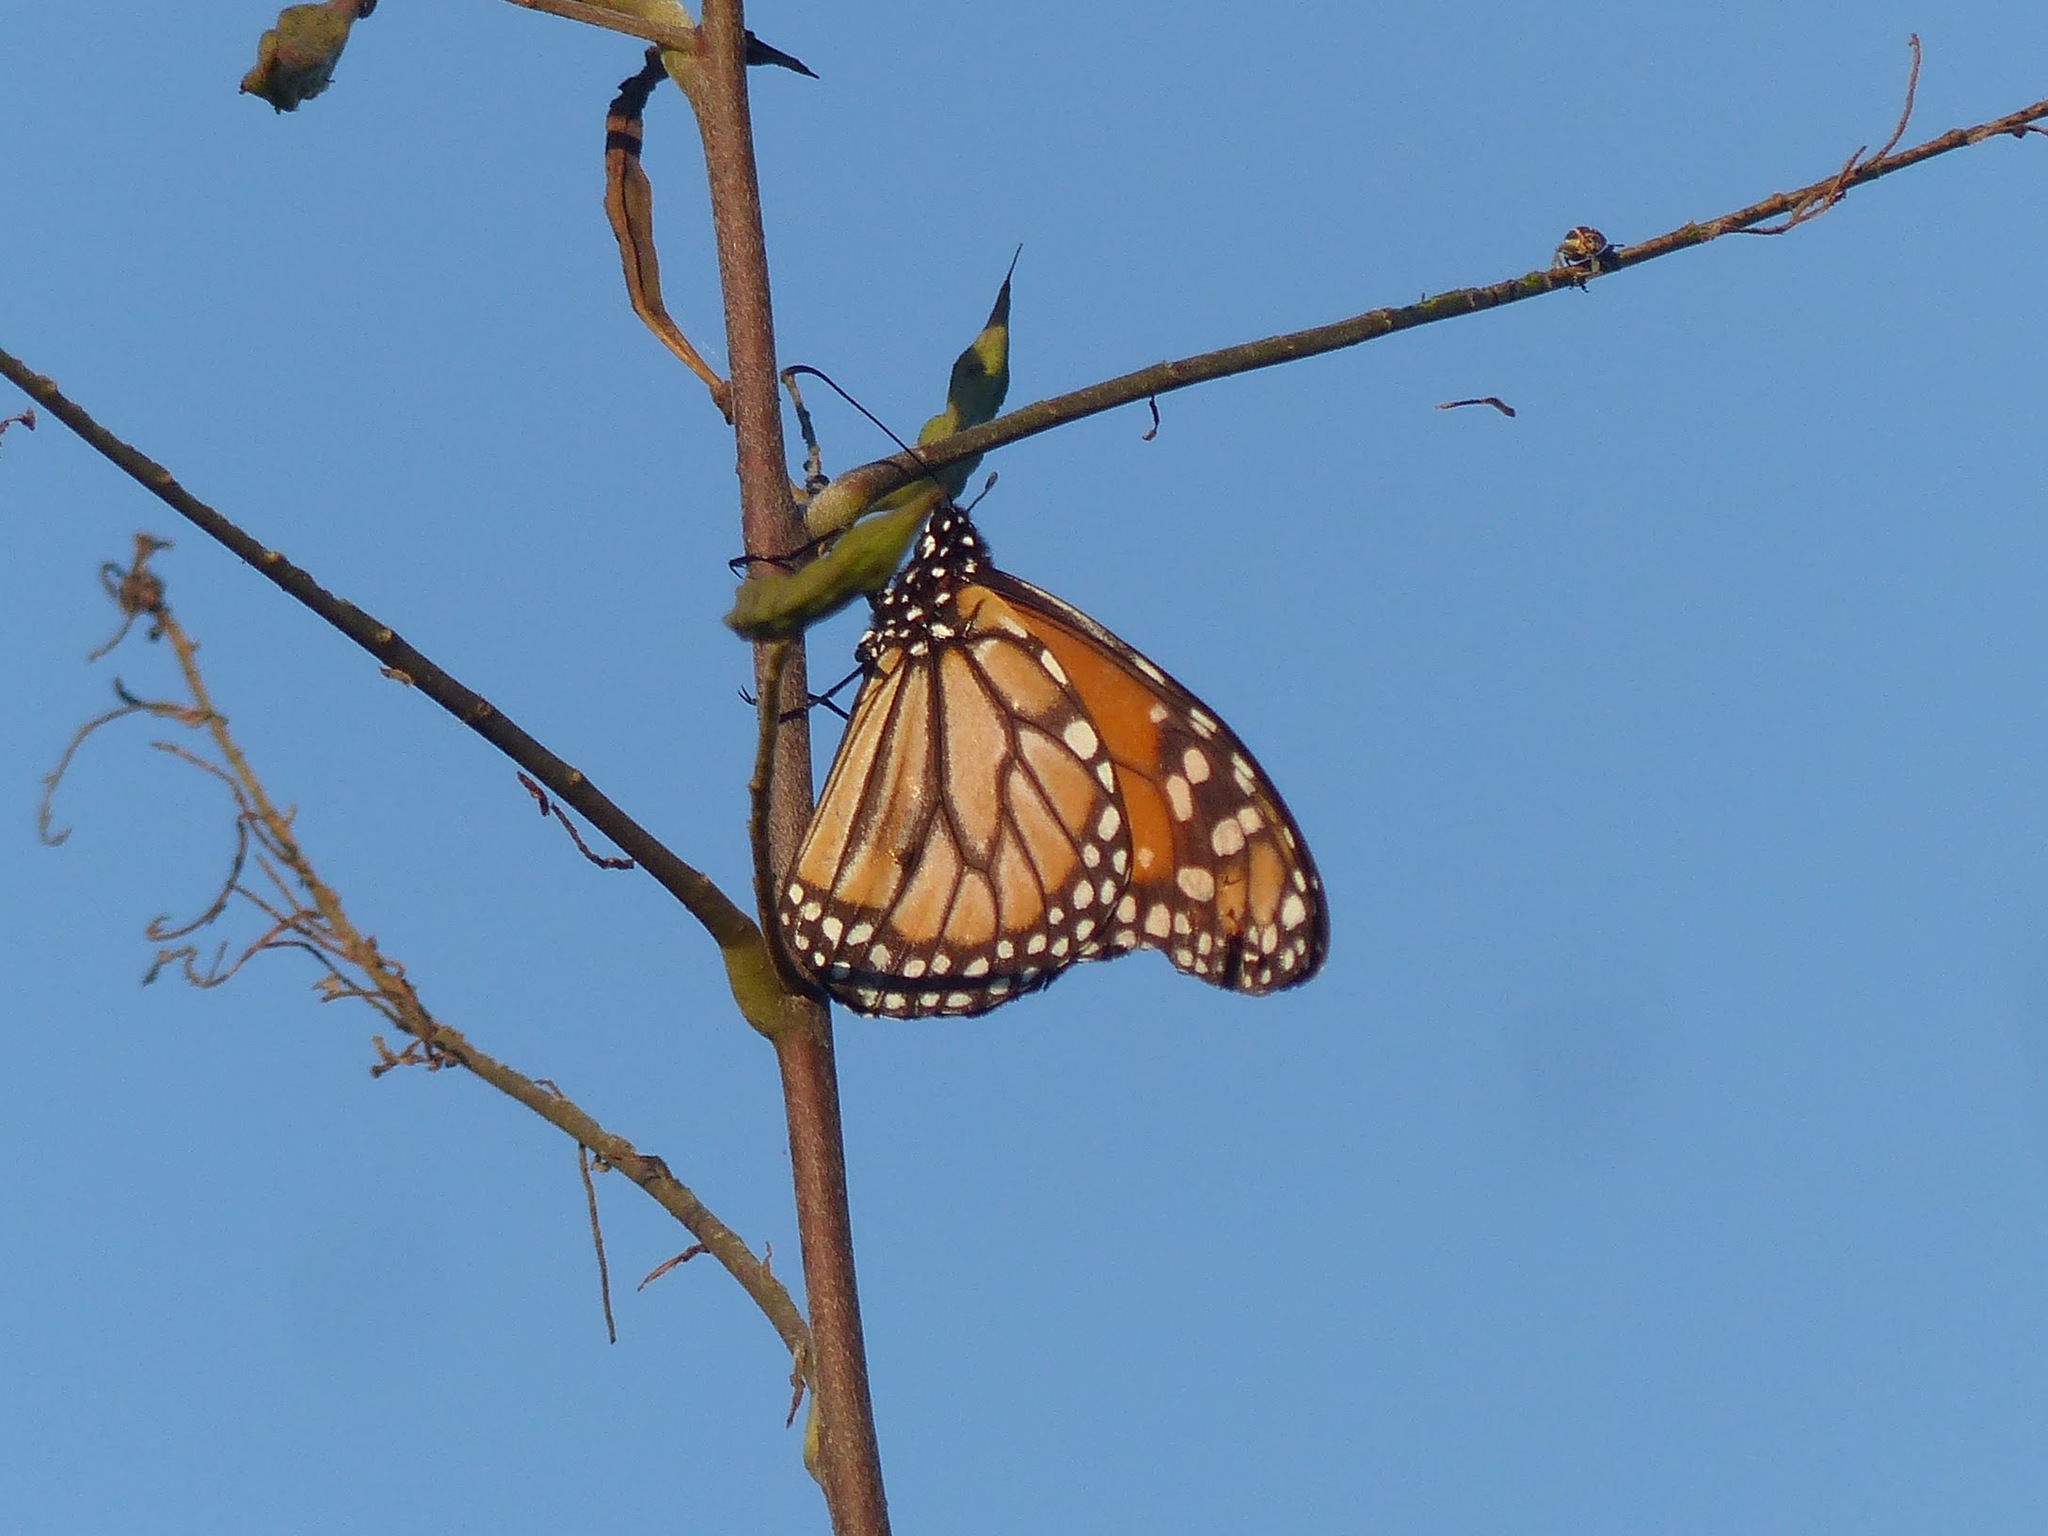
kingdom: Animalia
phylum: Arthropoda
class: Insecta
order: Lepidoptera
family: Nymphalidae
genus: Danaus
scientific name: Danaus erippus
